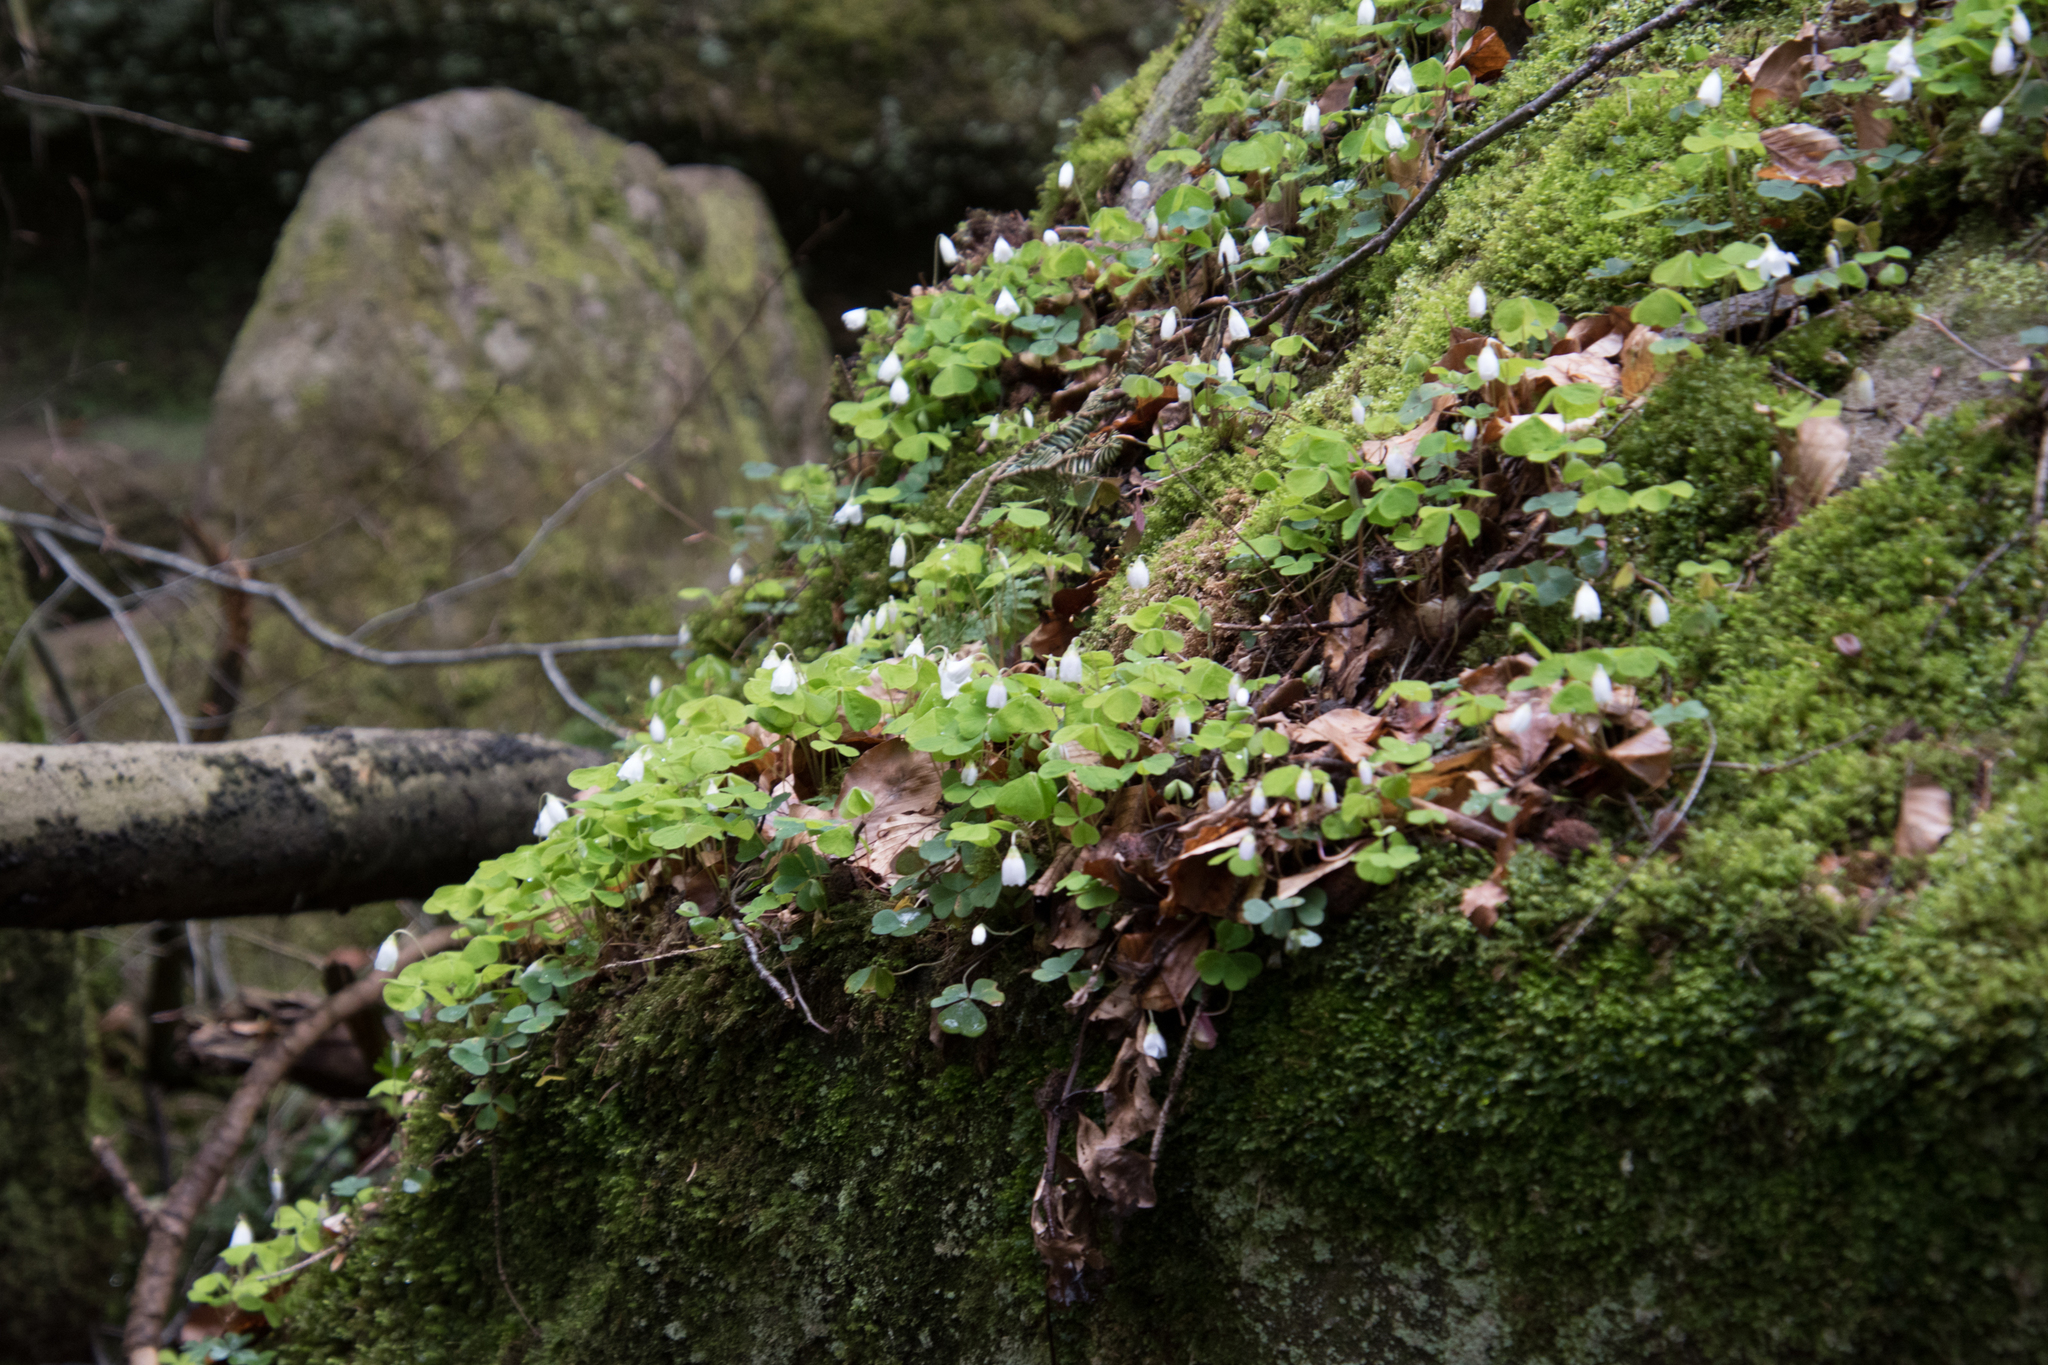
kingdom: Plantae
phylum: Tracheophyta
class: Magnoliopsida
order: Oxalidales
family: Oxalidaceae
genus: Oxalis
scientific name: Oxalis acetosella
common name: Wood-sorrel
